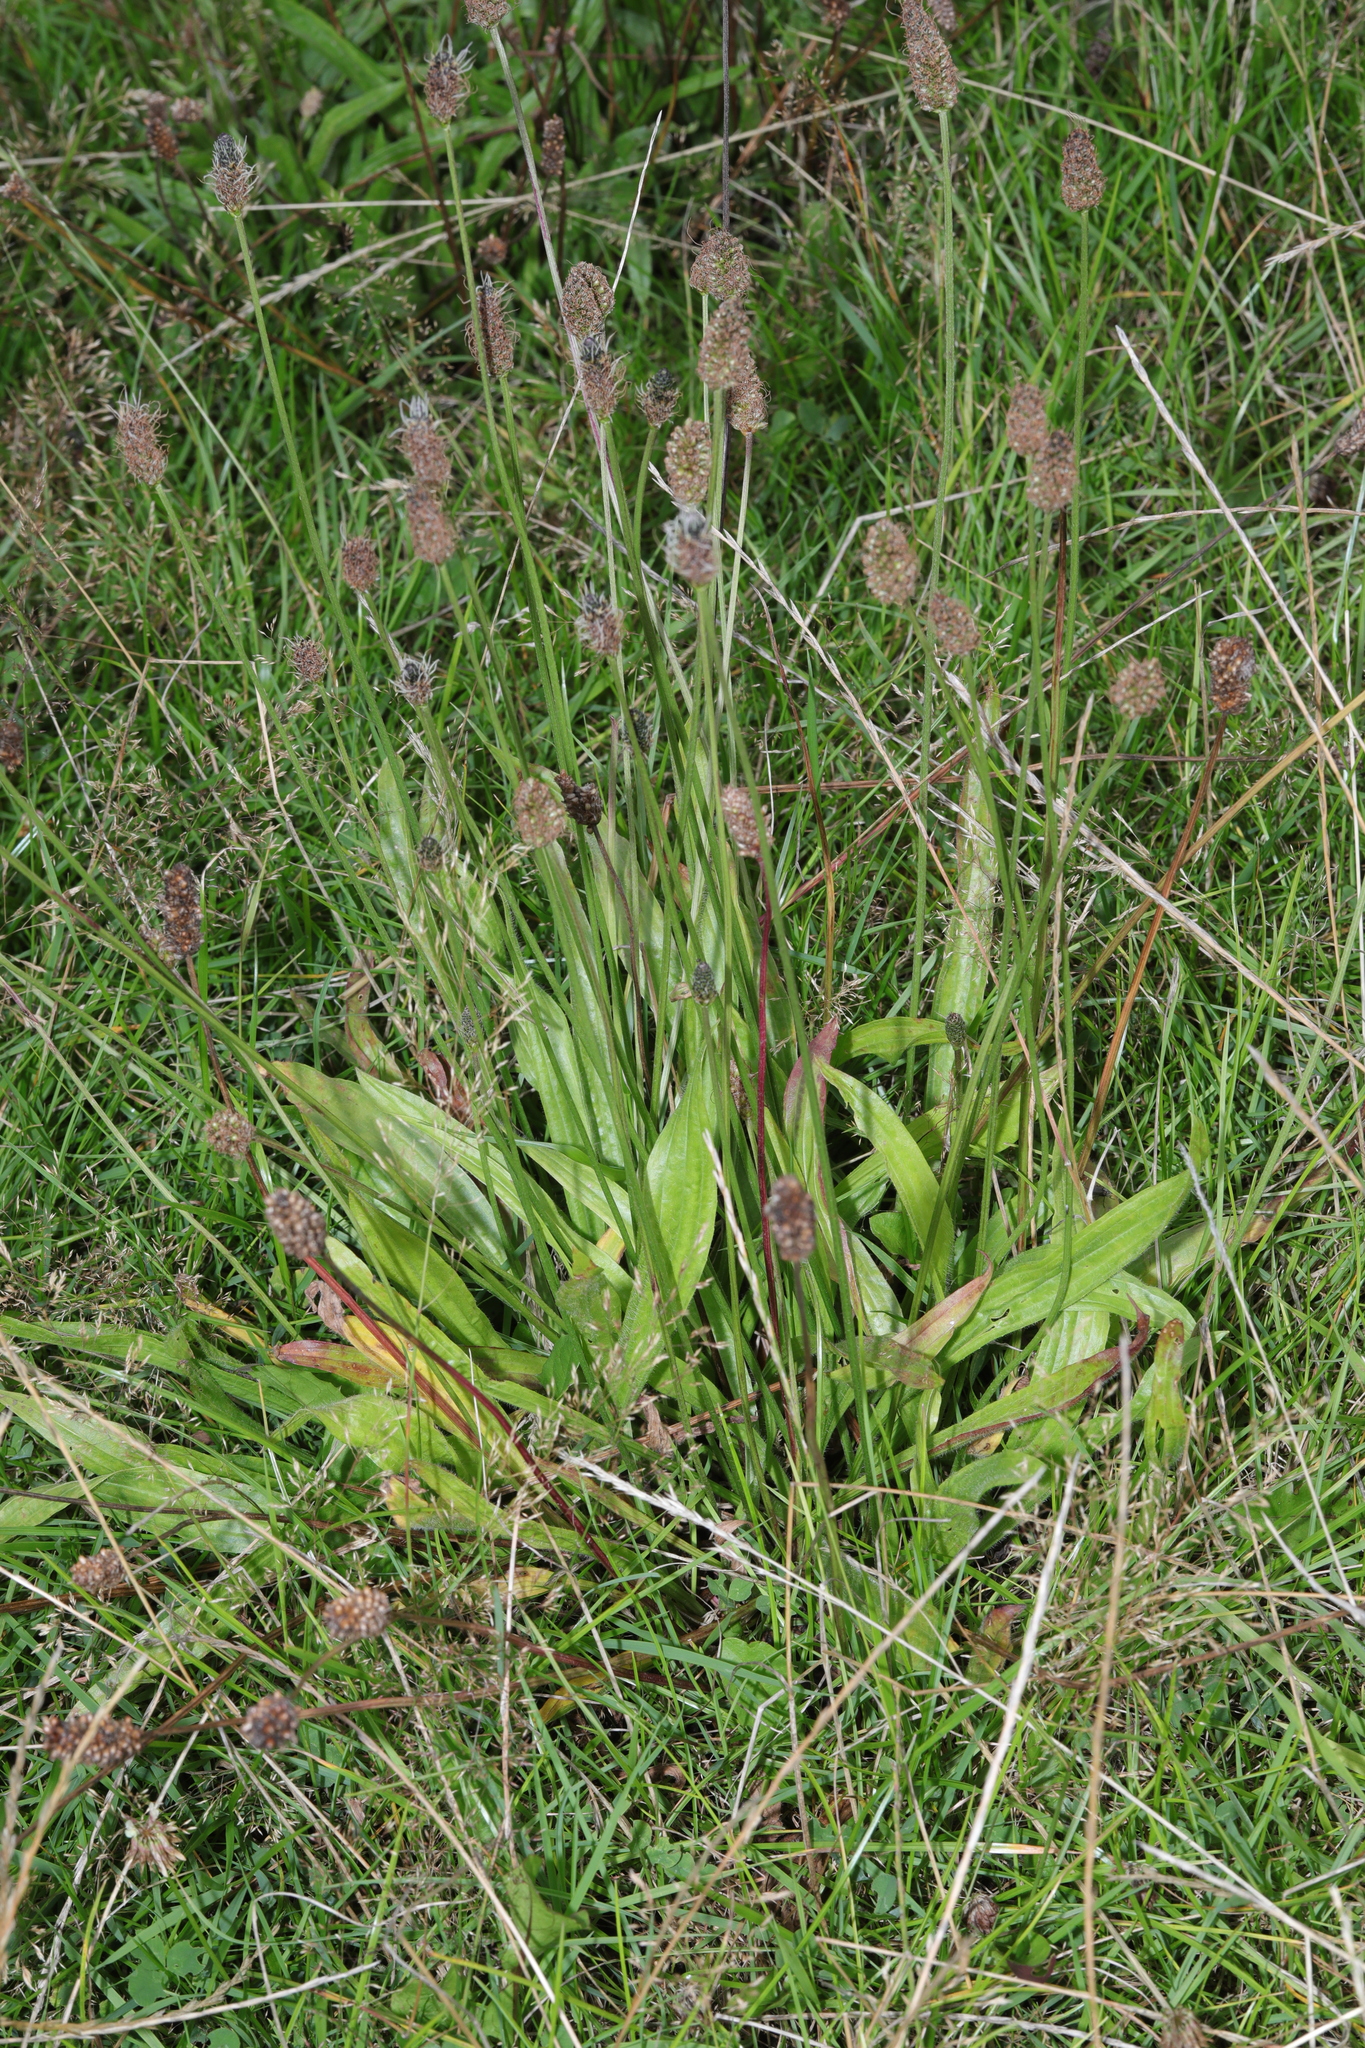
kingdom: Plantae
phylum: Tracheophyta
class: Magnoliopsida
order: Lamiales
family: Plantaginaceae
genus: Plantago
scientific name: Plantago lanceolata
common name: Ribwort plantain
